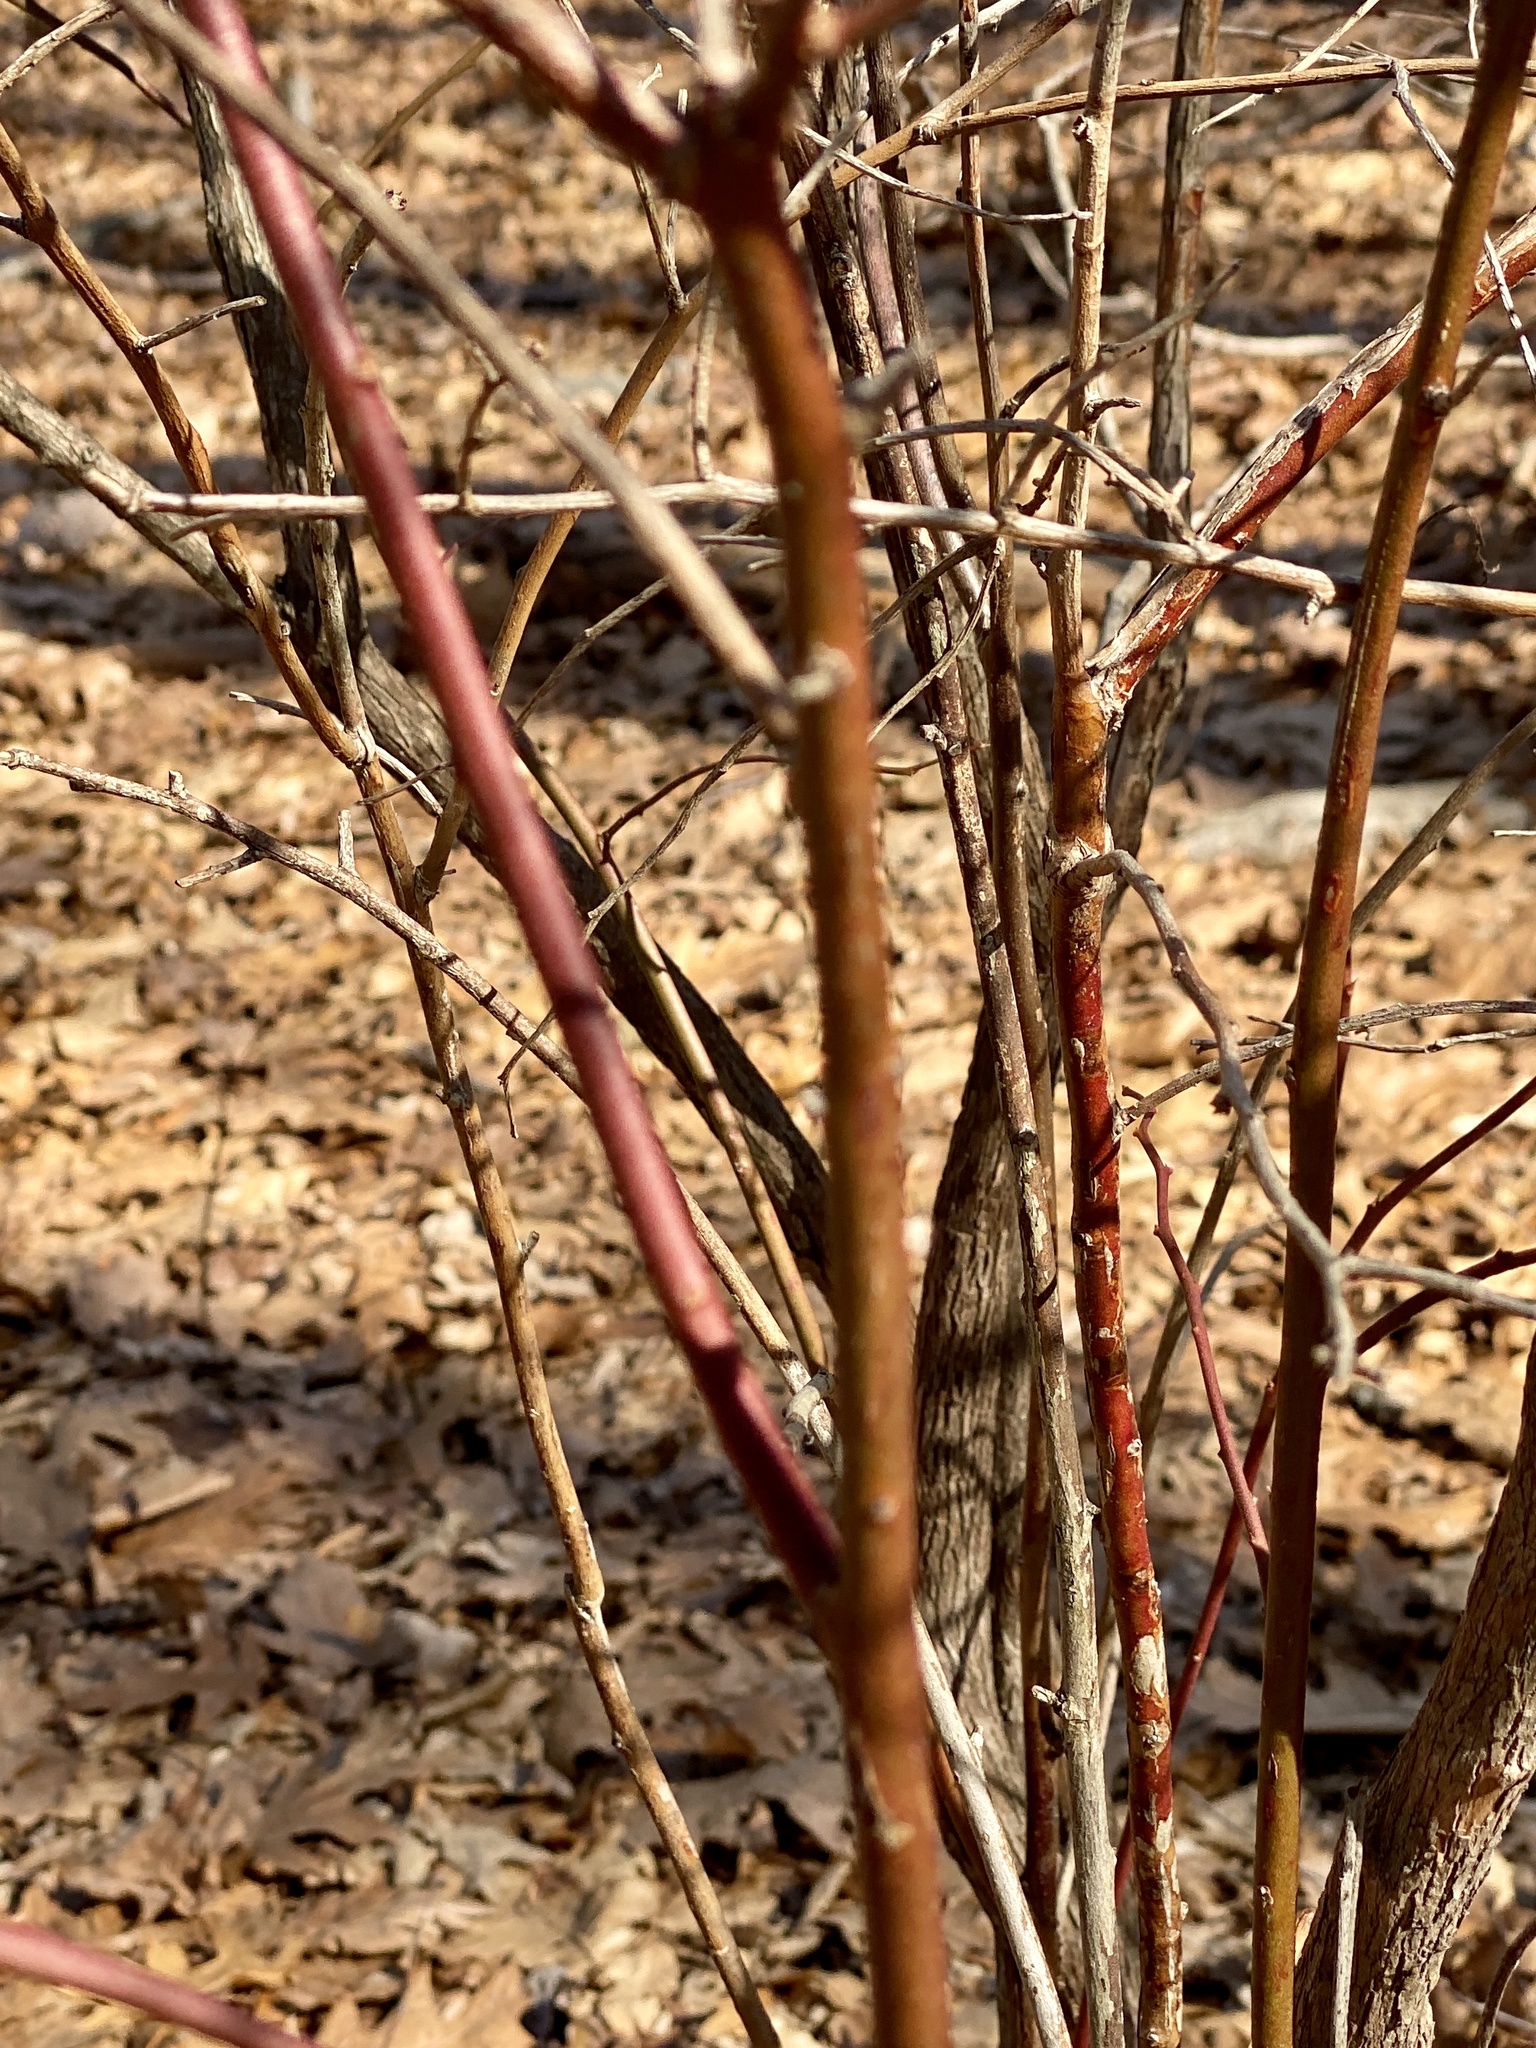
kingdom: Plantae
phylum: Tracheophyta
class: Magnoliopsida
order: Ericales
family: Ericaceae
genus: Vaccinium
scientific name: Vaccinium corymbosum
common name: Blueberry
